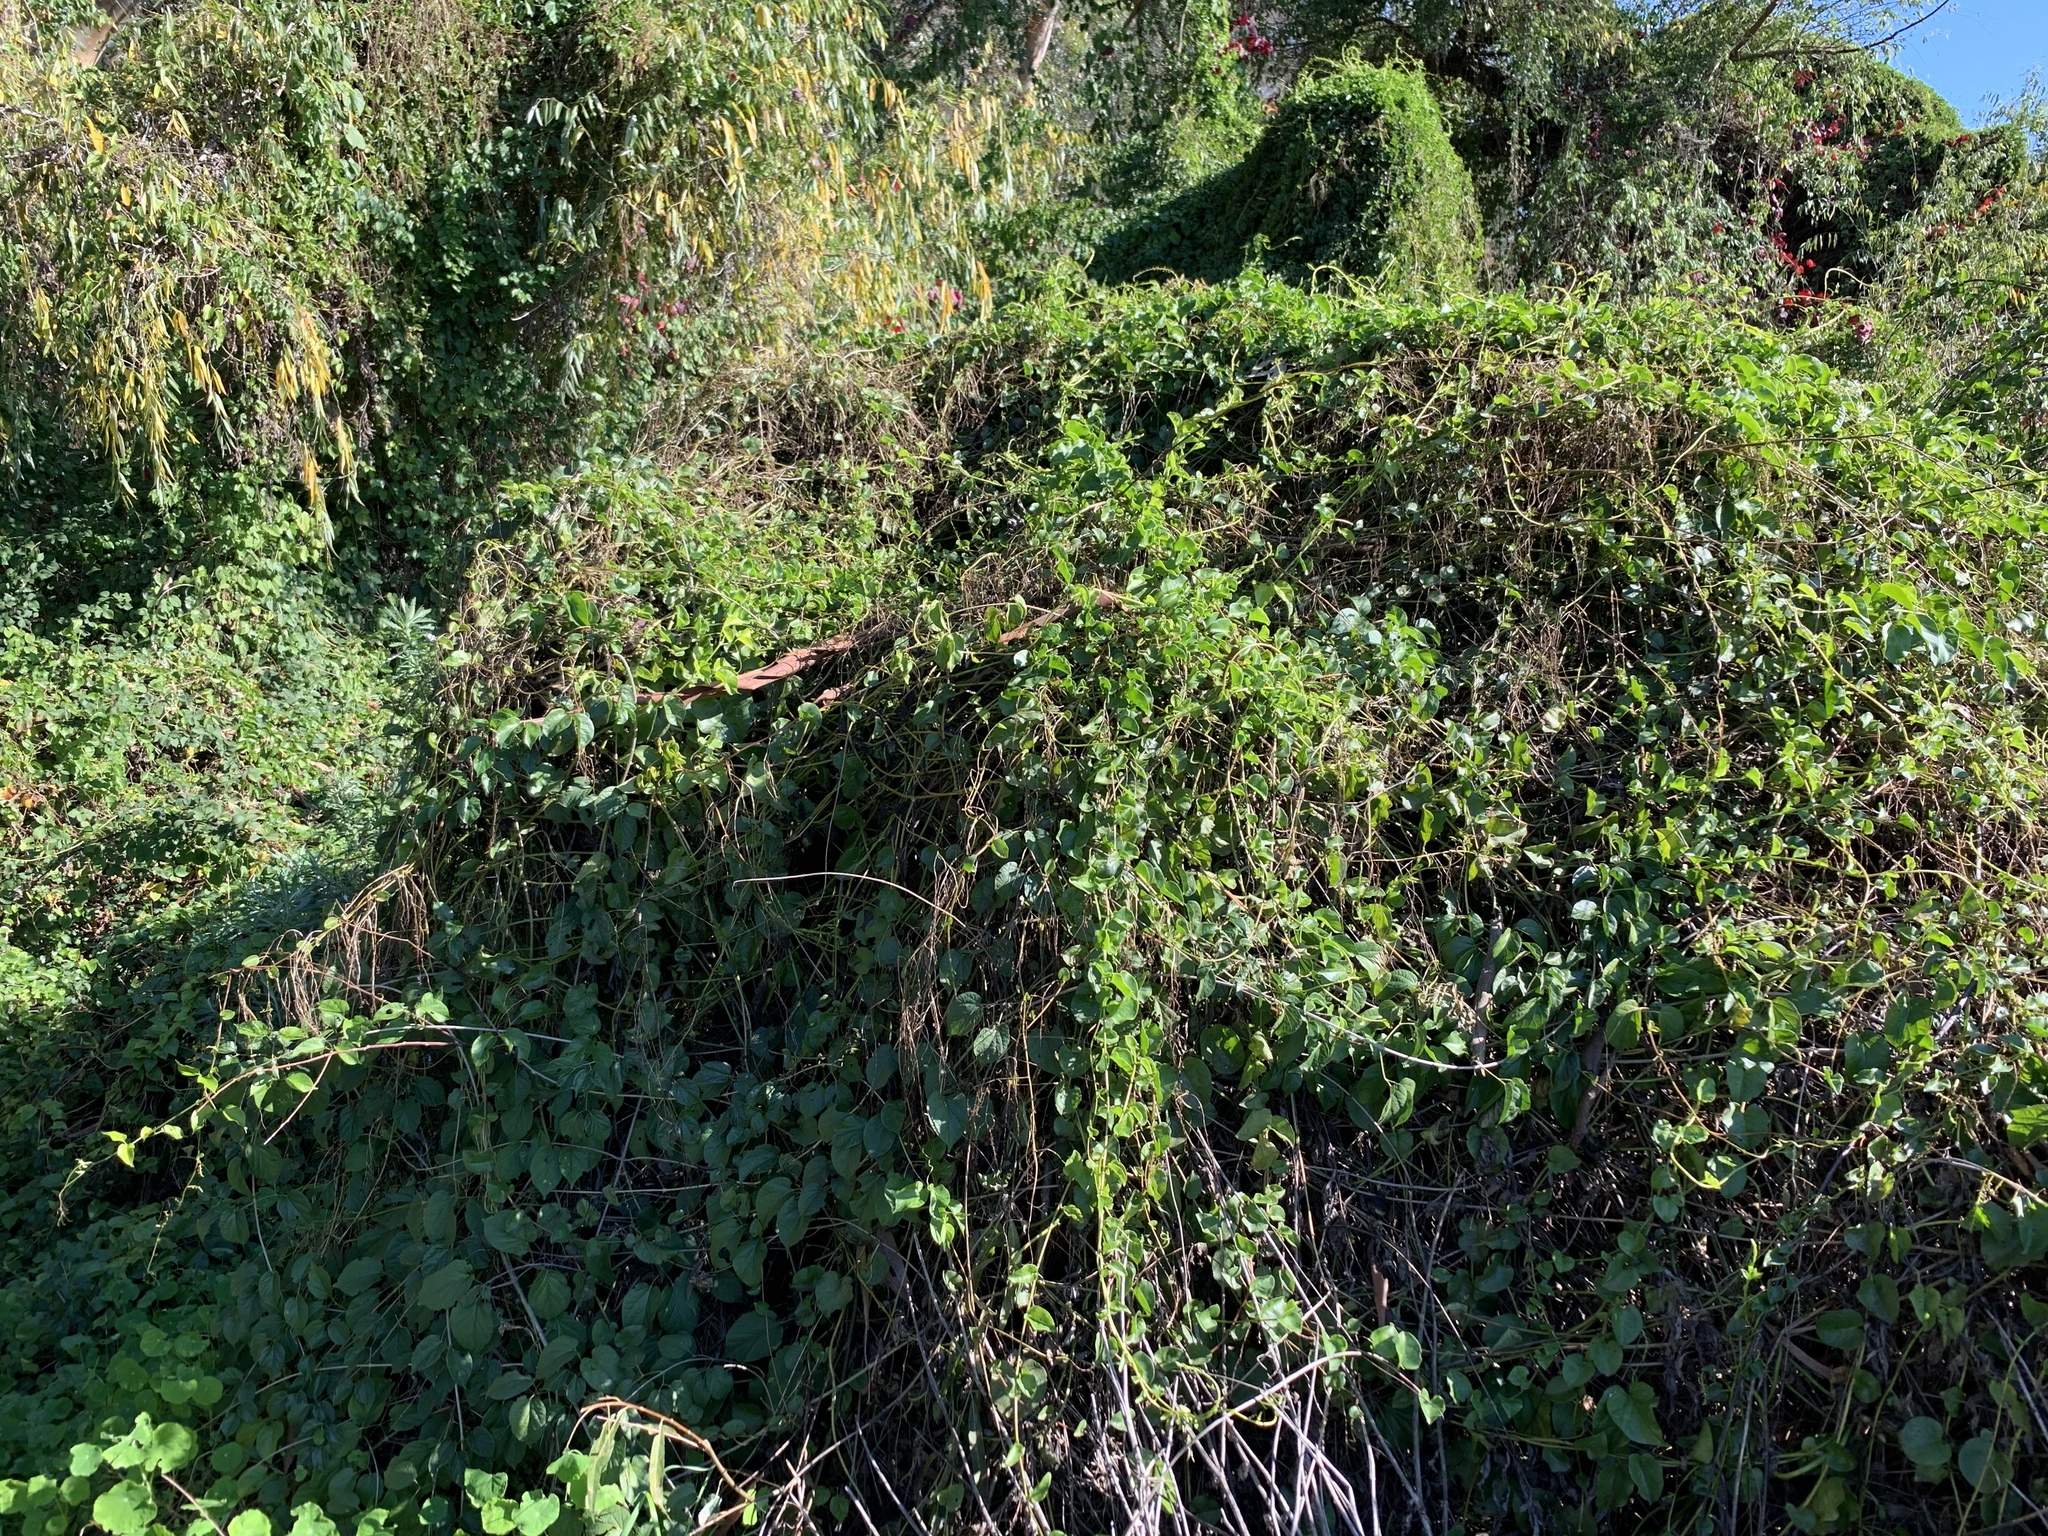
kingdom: Plantae
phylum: Tracheophyta
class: Magnoliopsida
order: Caryophyllales
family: Basellaceae
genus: Anredera
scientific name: Anredera cordifolia
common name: Heartleaf madeiravine
